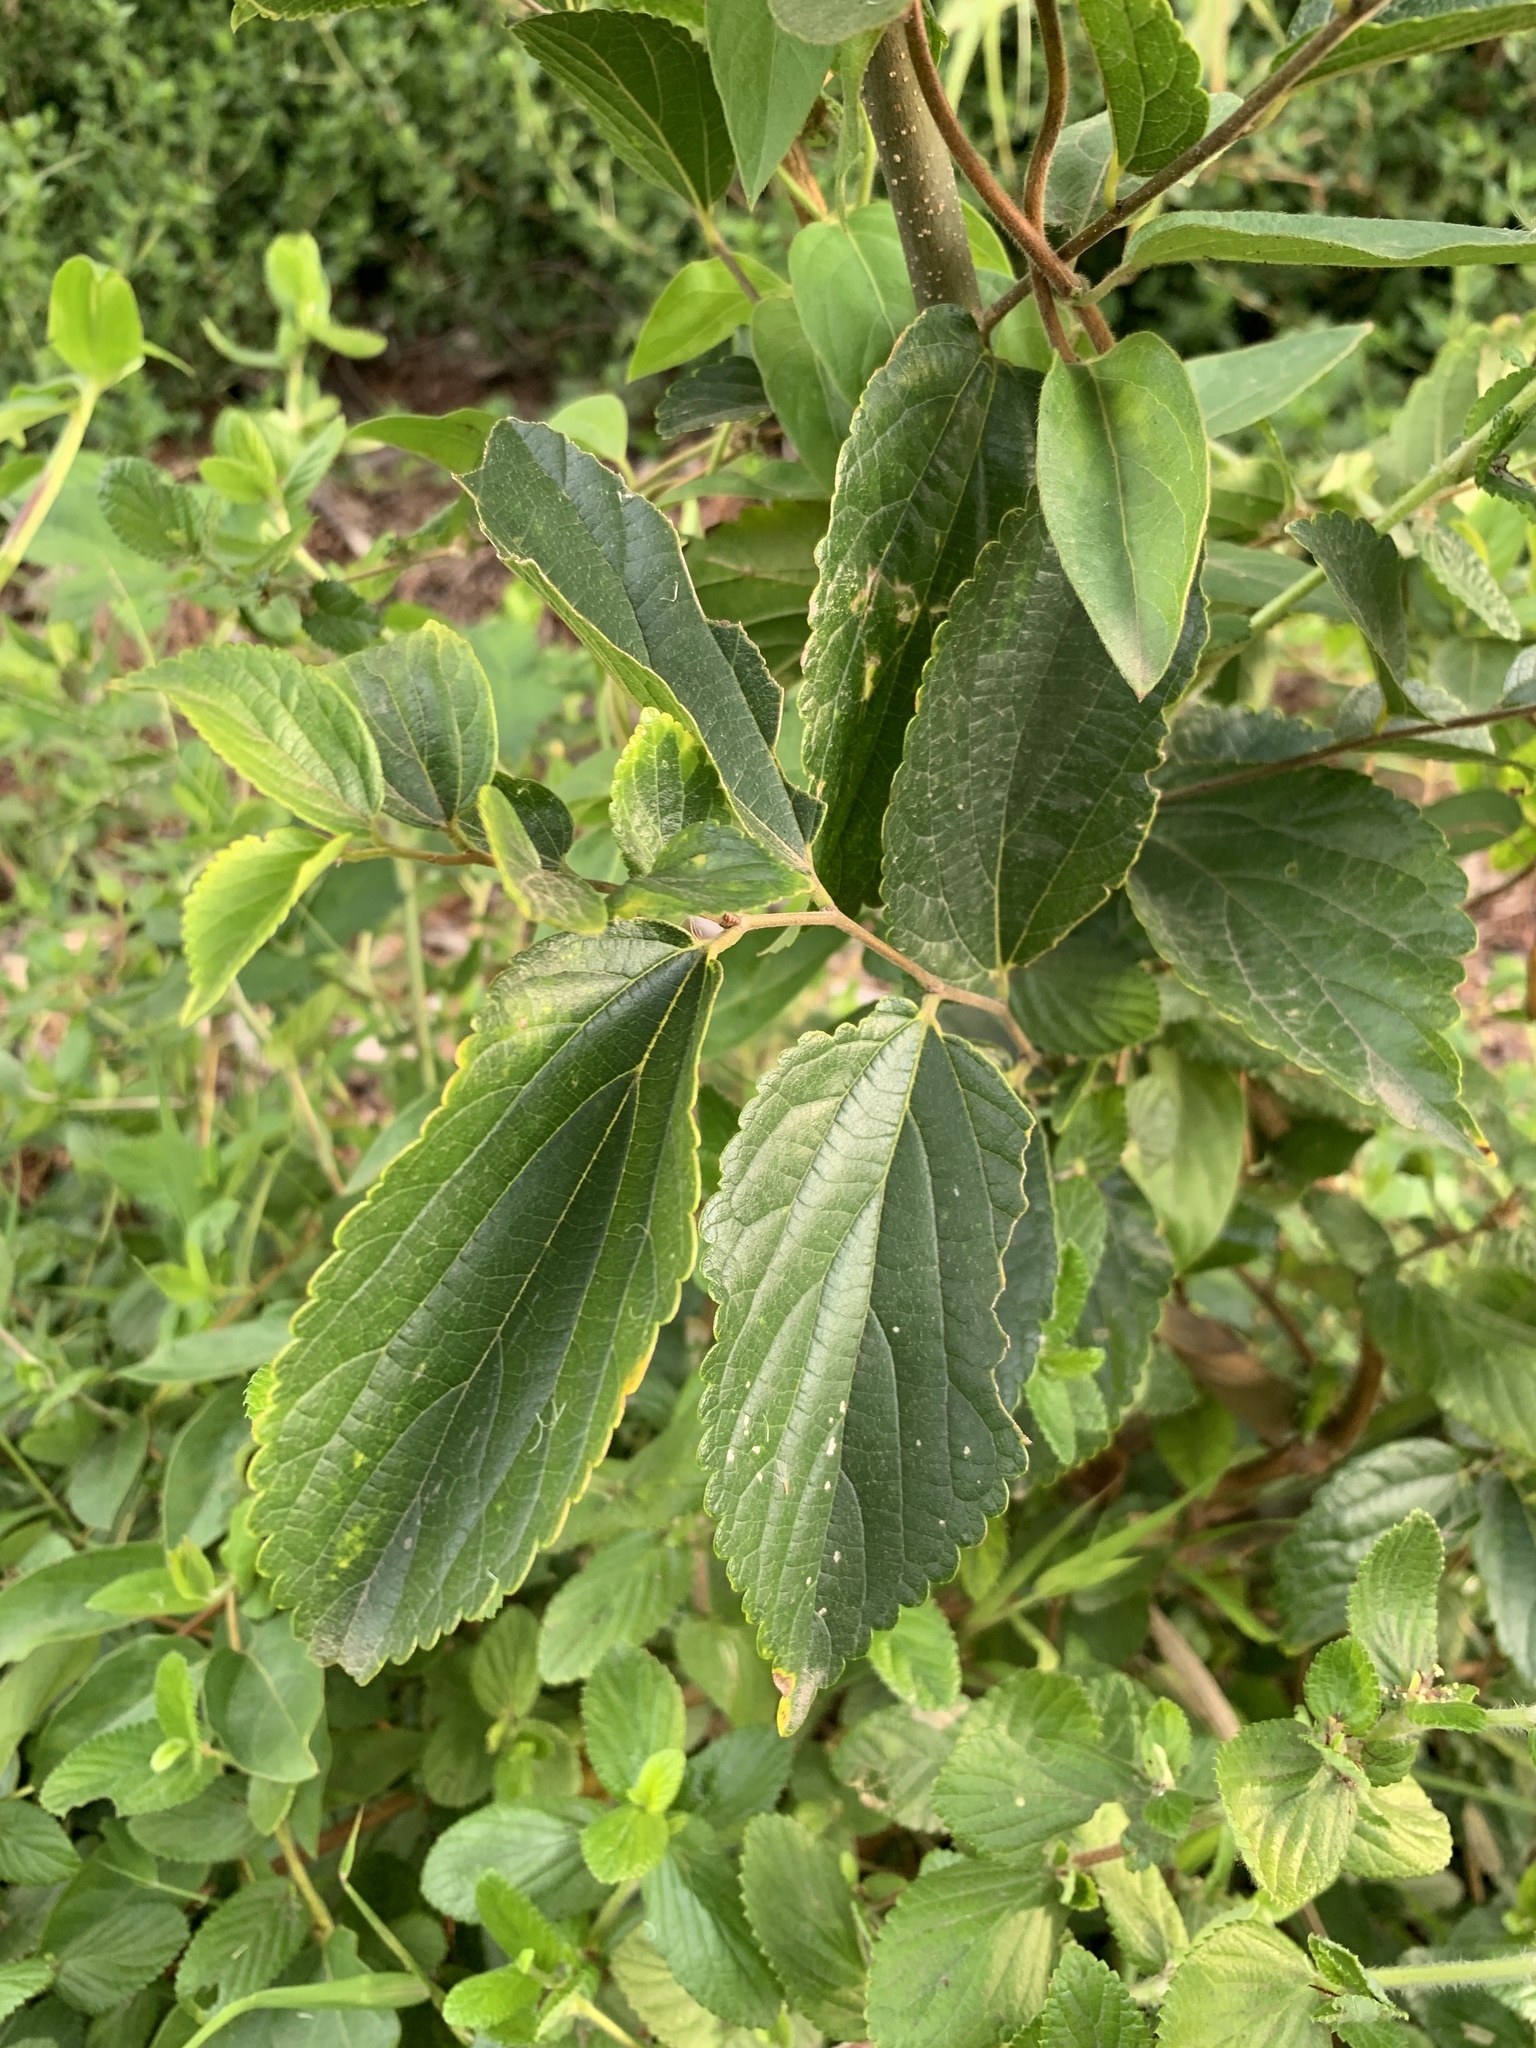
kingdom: Plantae
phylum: Tracheophyta
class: Magnoliopsida
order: Rosales
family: Cannabaceae
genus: Celtis
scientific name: Celtis
